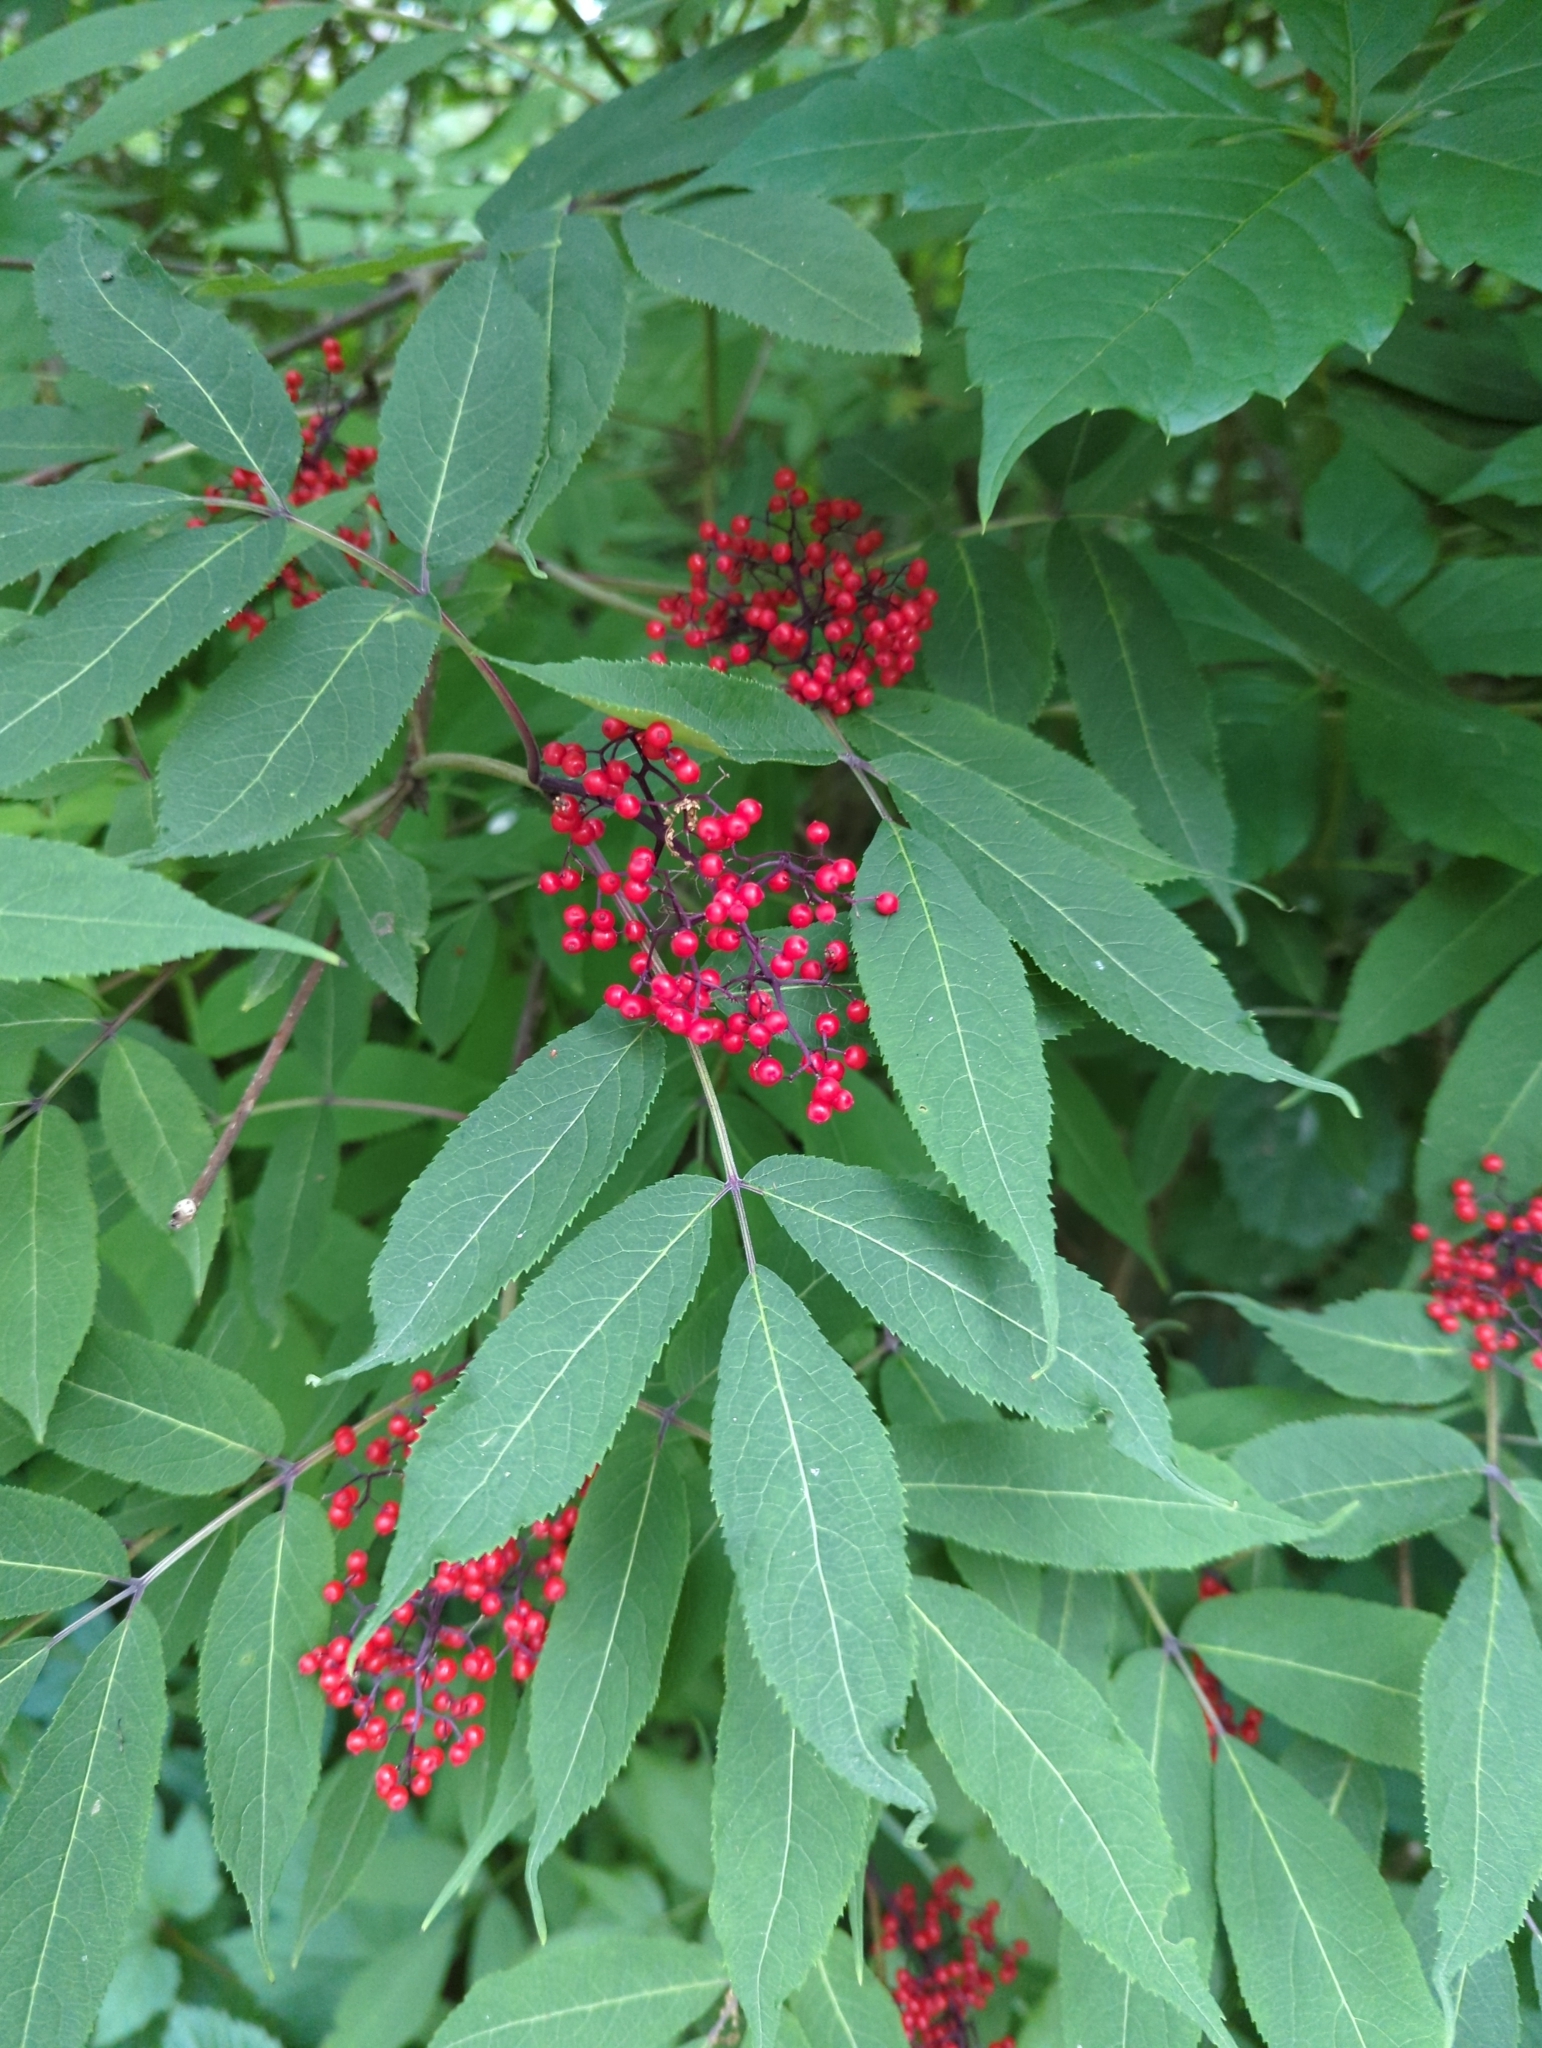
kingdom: Plantae
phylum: Tracheophyta
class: Magnoliopsida
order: Dipsacales
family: Viburnaceae
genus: Sambucus
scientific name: Sambucus racemosa
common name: Red-berried elder
